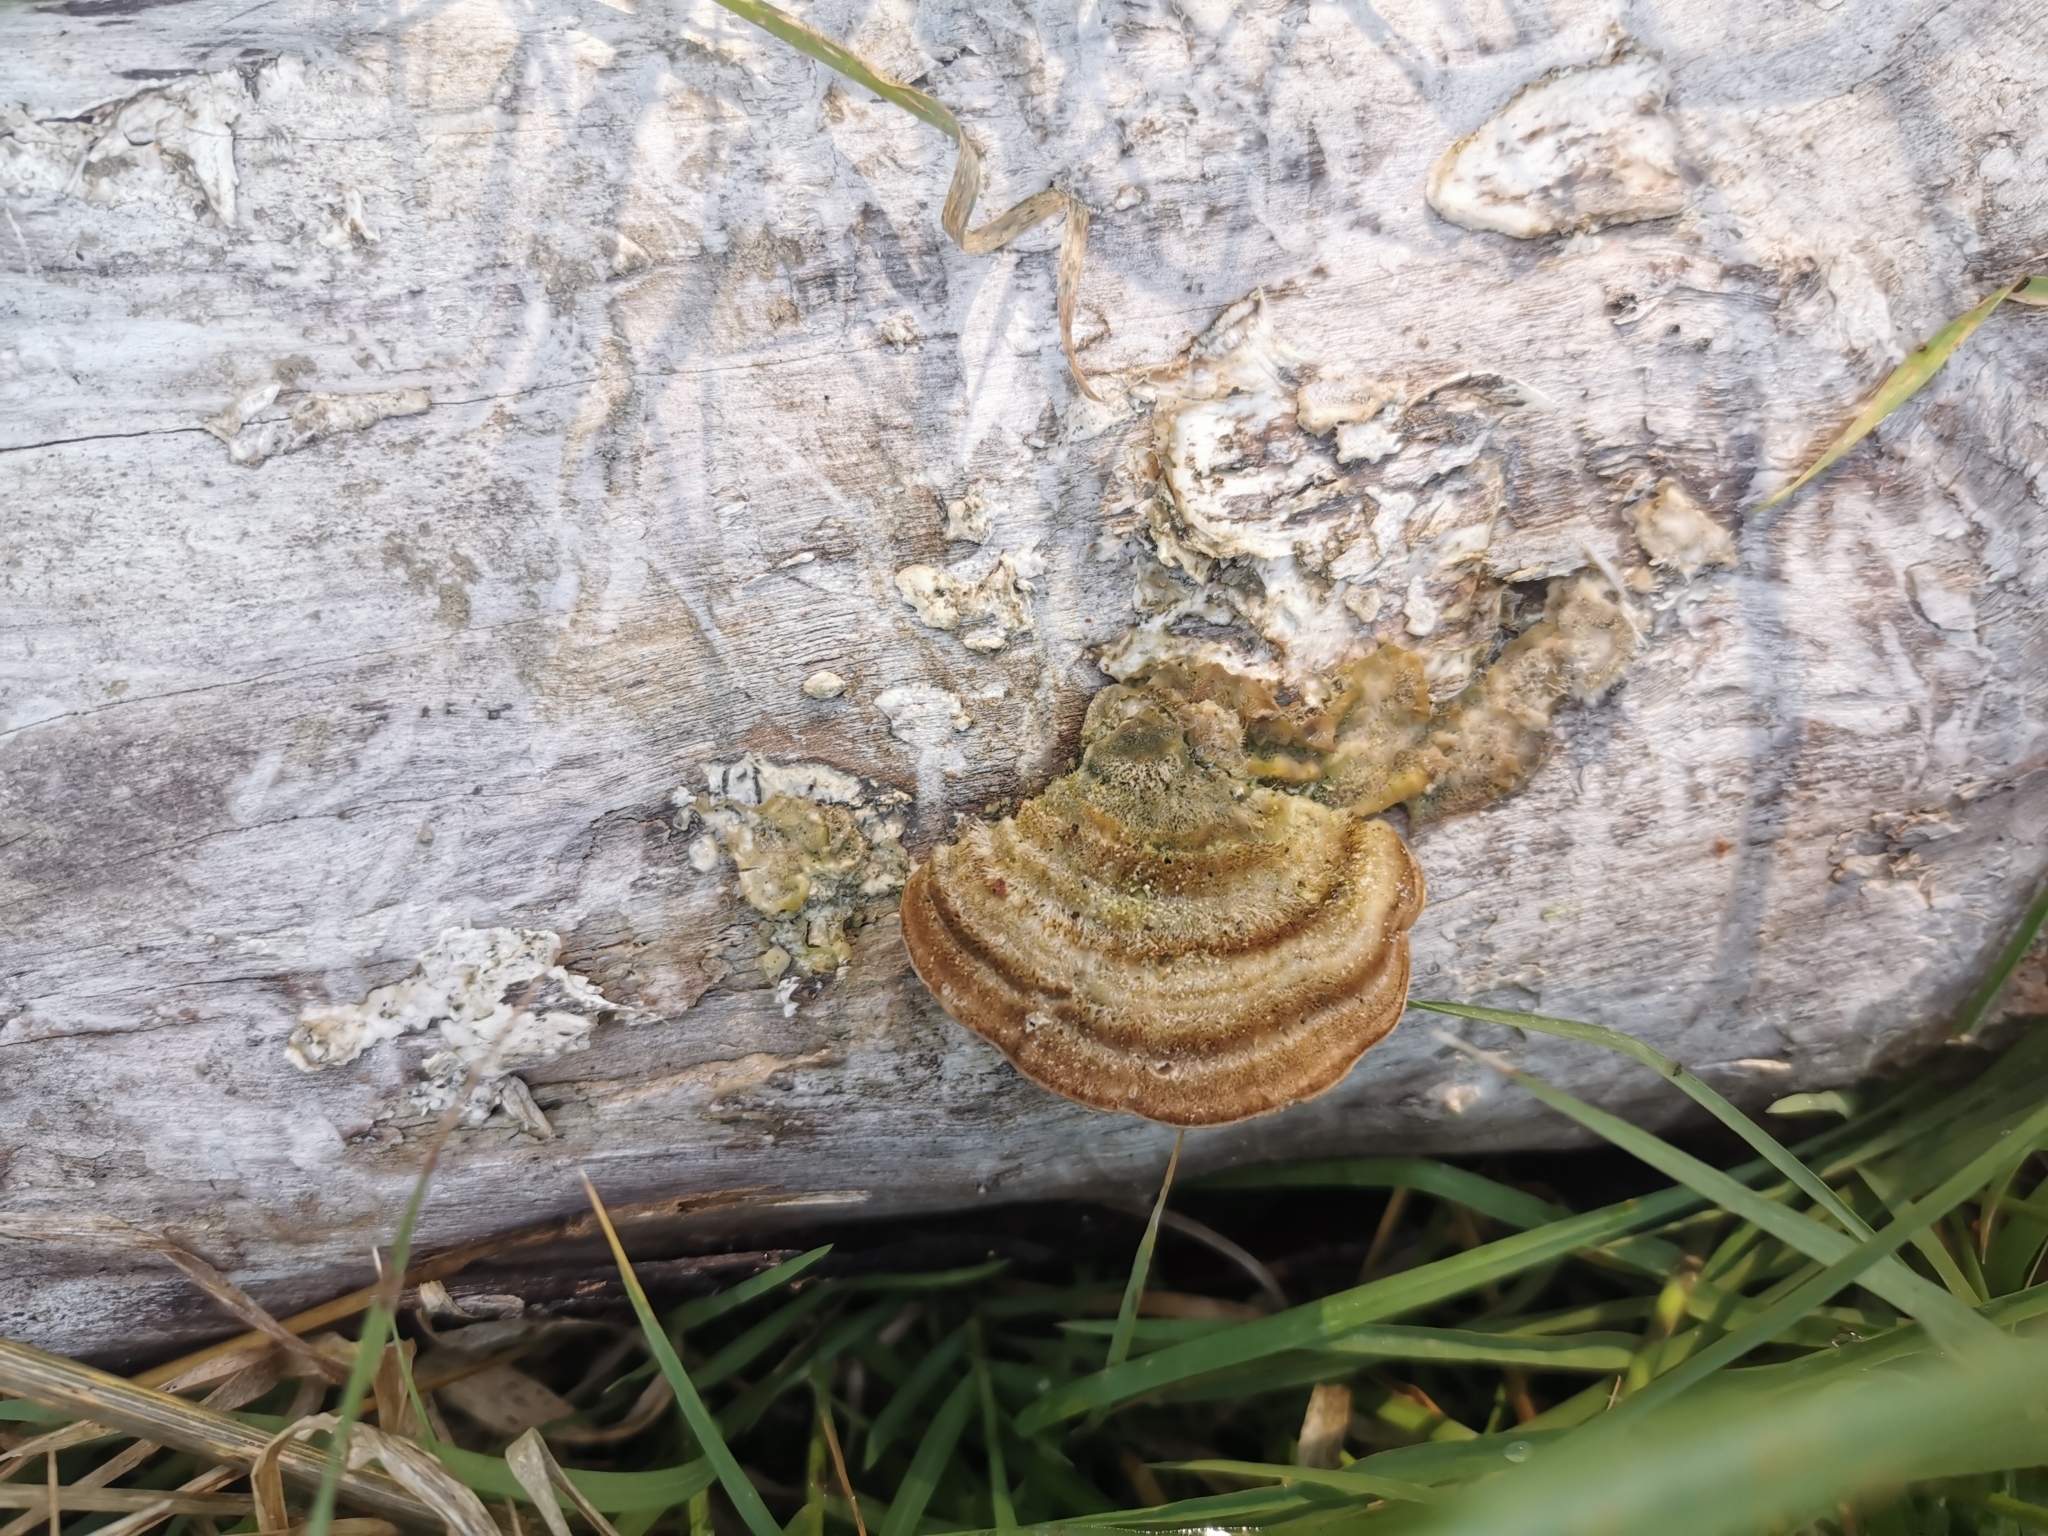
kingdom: Fungi
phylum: Basidiomycota
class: Agaricomycetes
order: Polyporales
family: Polyporaceae
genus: Trametes
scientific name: Trametes hirsuta
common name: Hairy bracket
